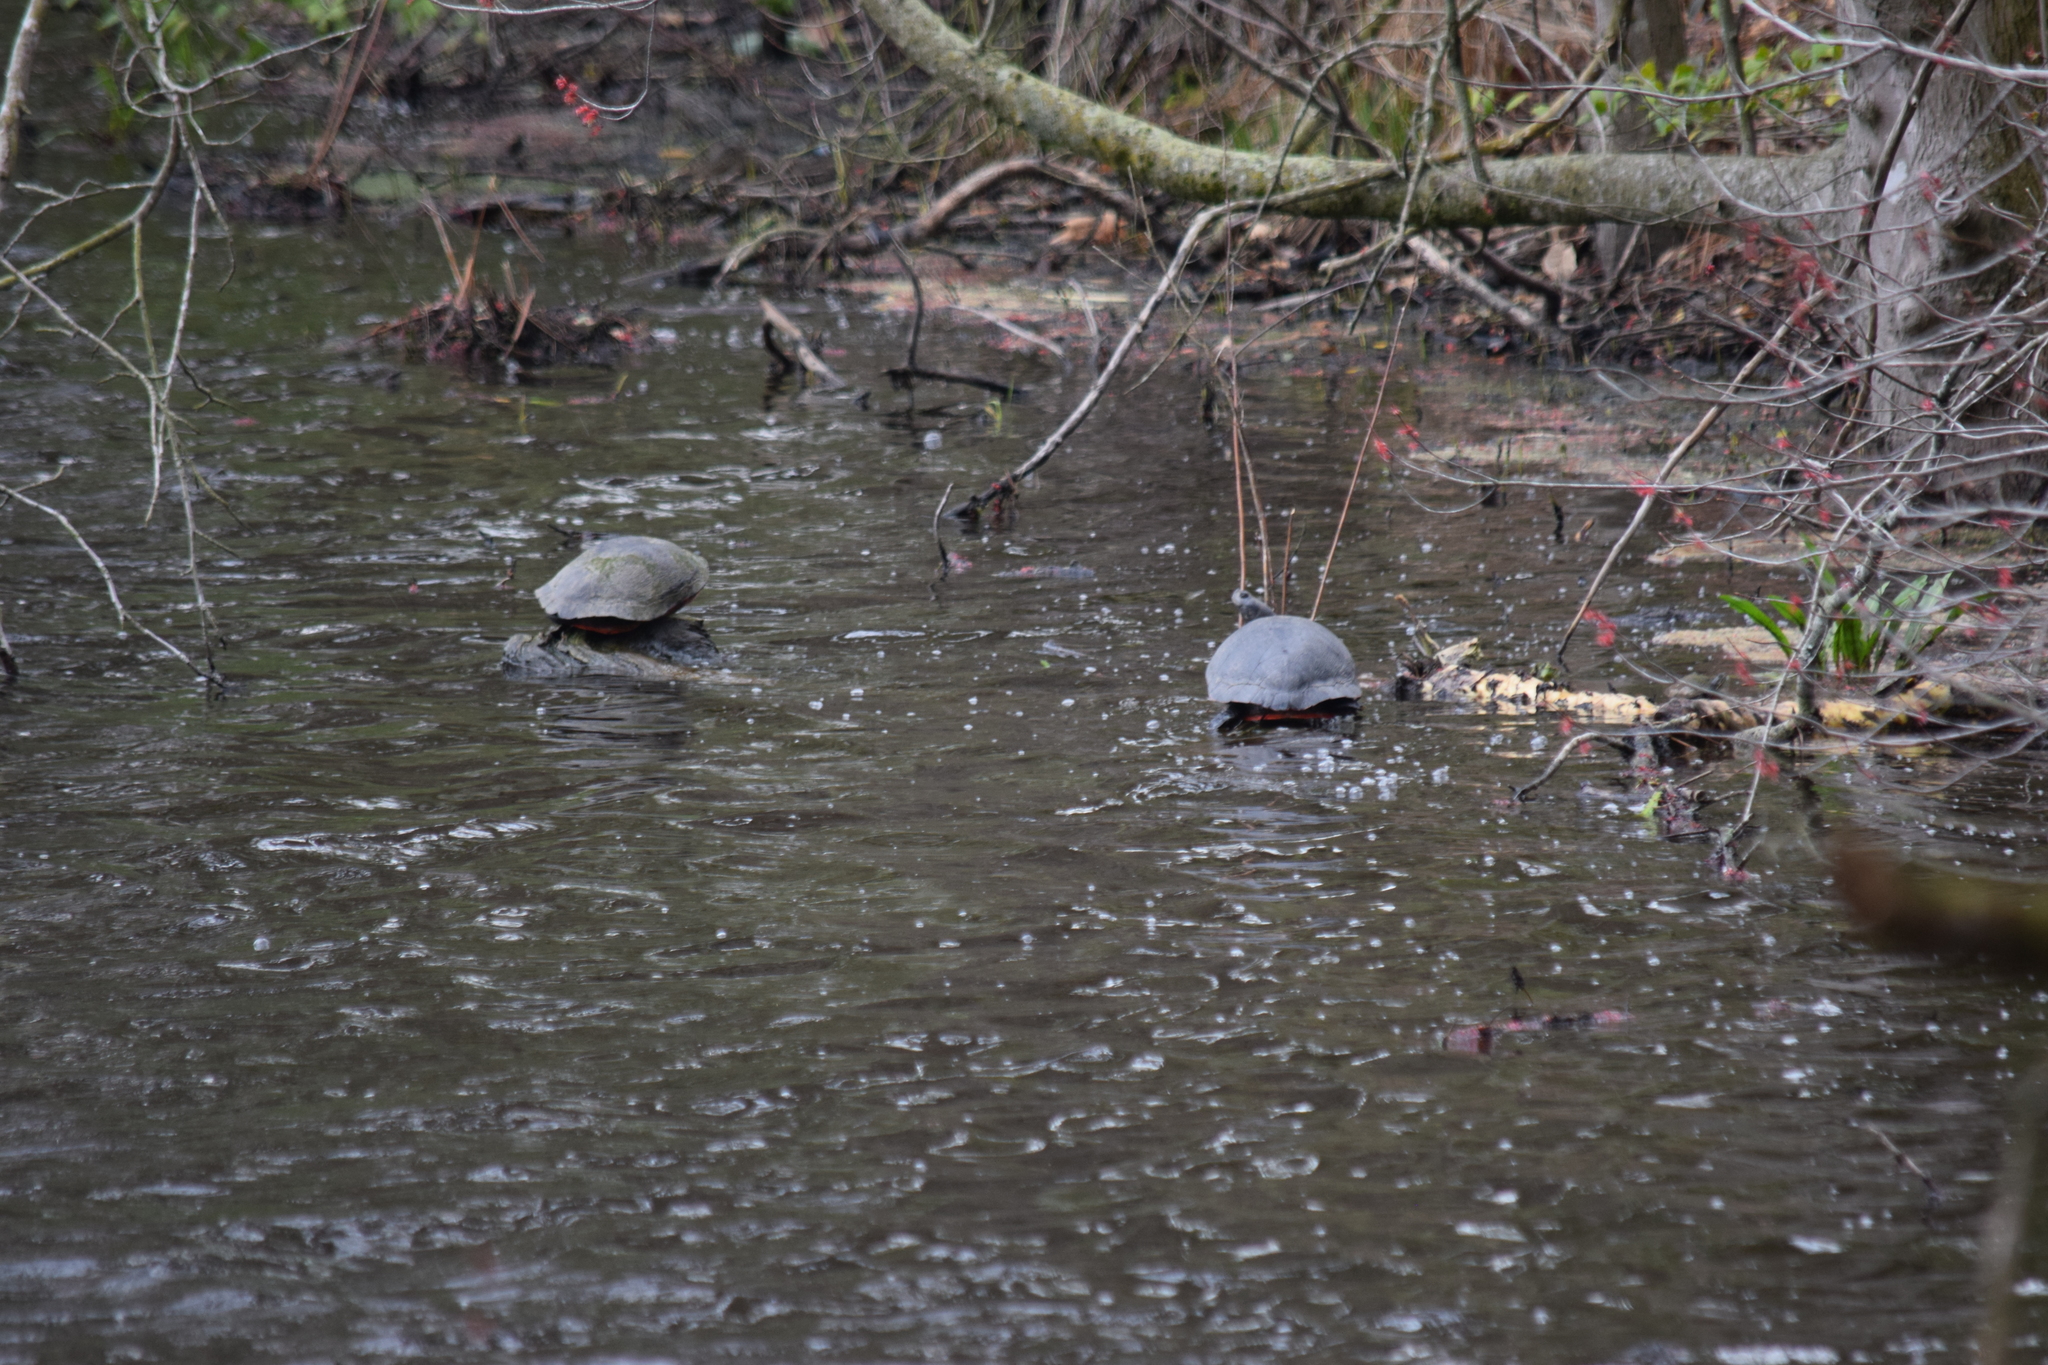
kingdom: Animalia
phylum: Chordata
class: Testudines
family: Emydidae
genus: Pseudemys
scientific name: Pseudemys rubriventris
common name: American red-bellied turtle
